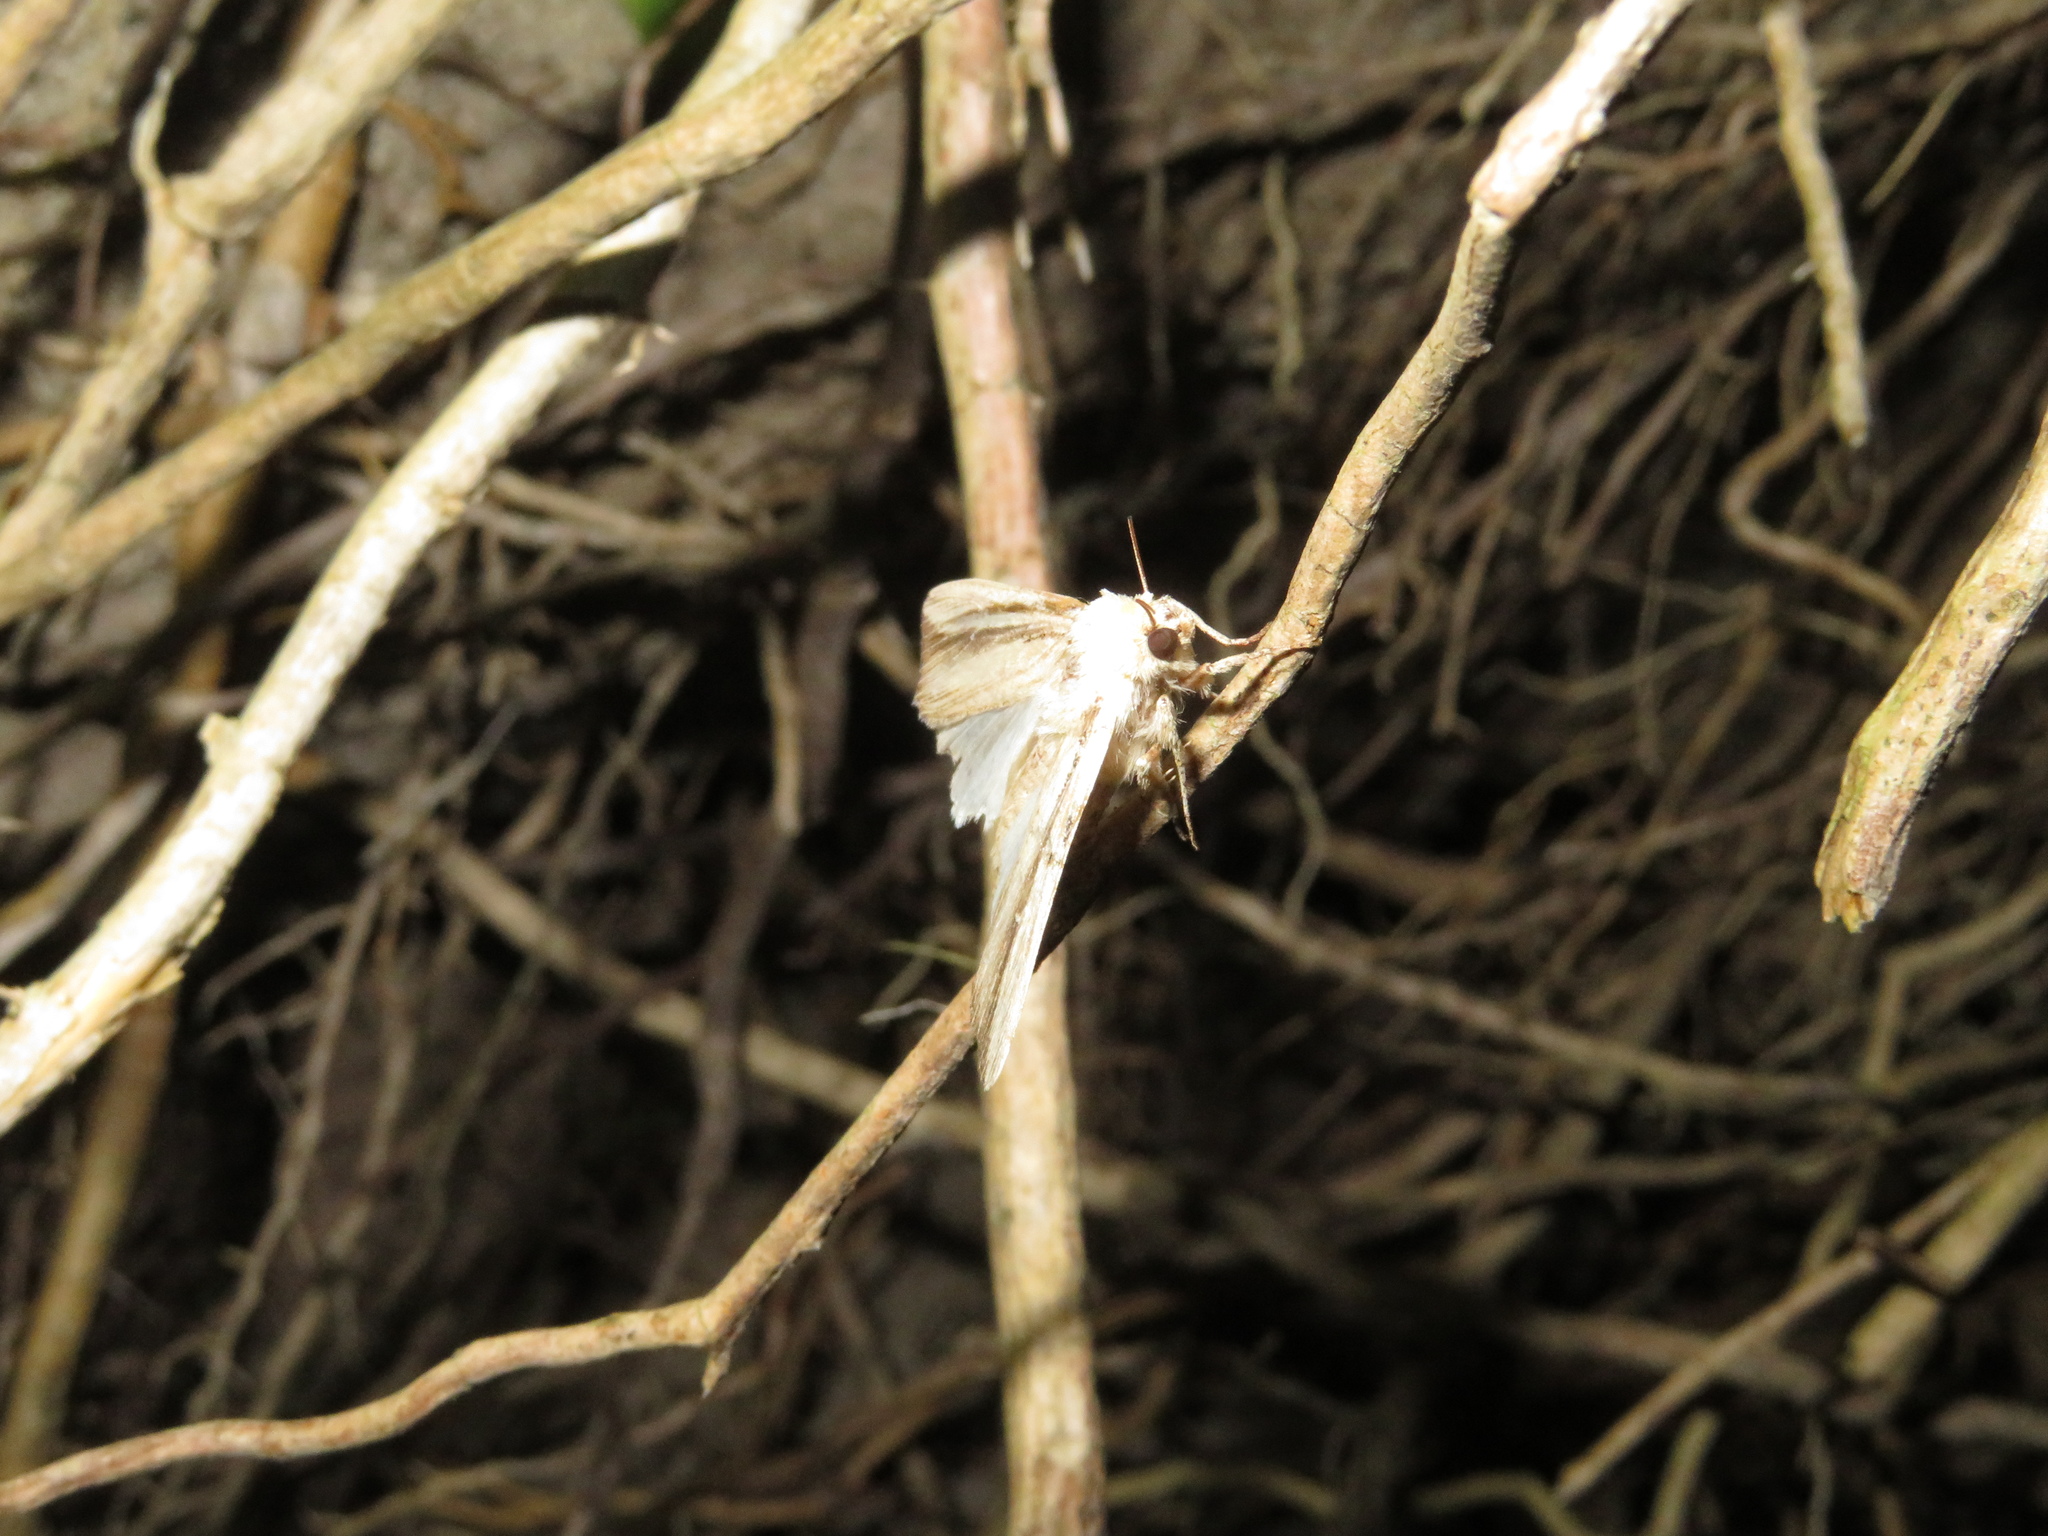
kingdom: Animalia
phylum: Arthropoda
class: Insecta
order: Lepidoptera
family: Noctuidae
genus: Leucania
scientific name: Leucania stenographa
